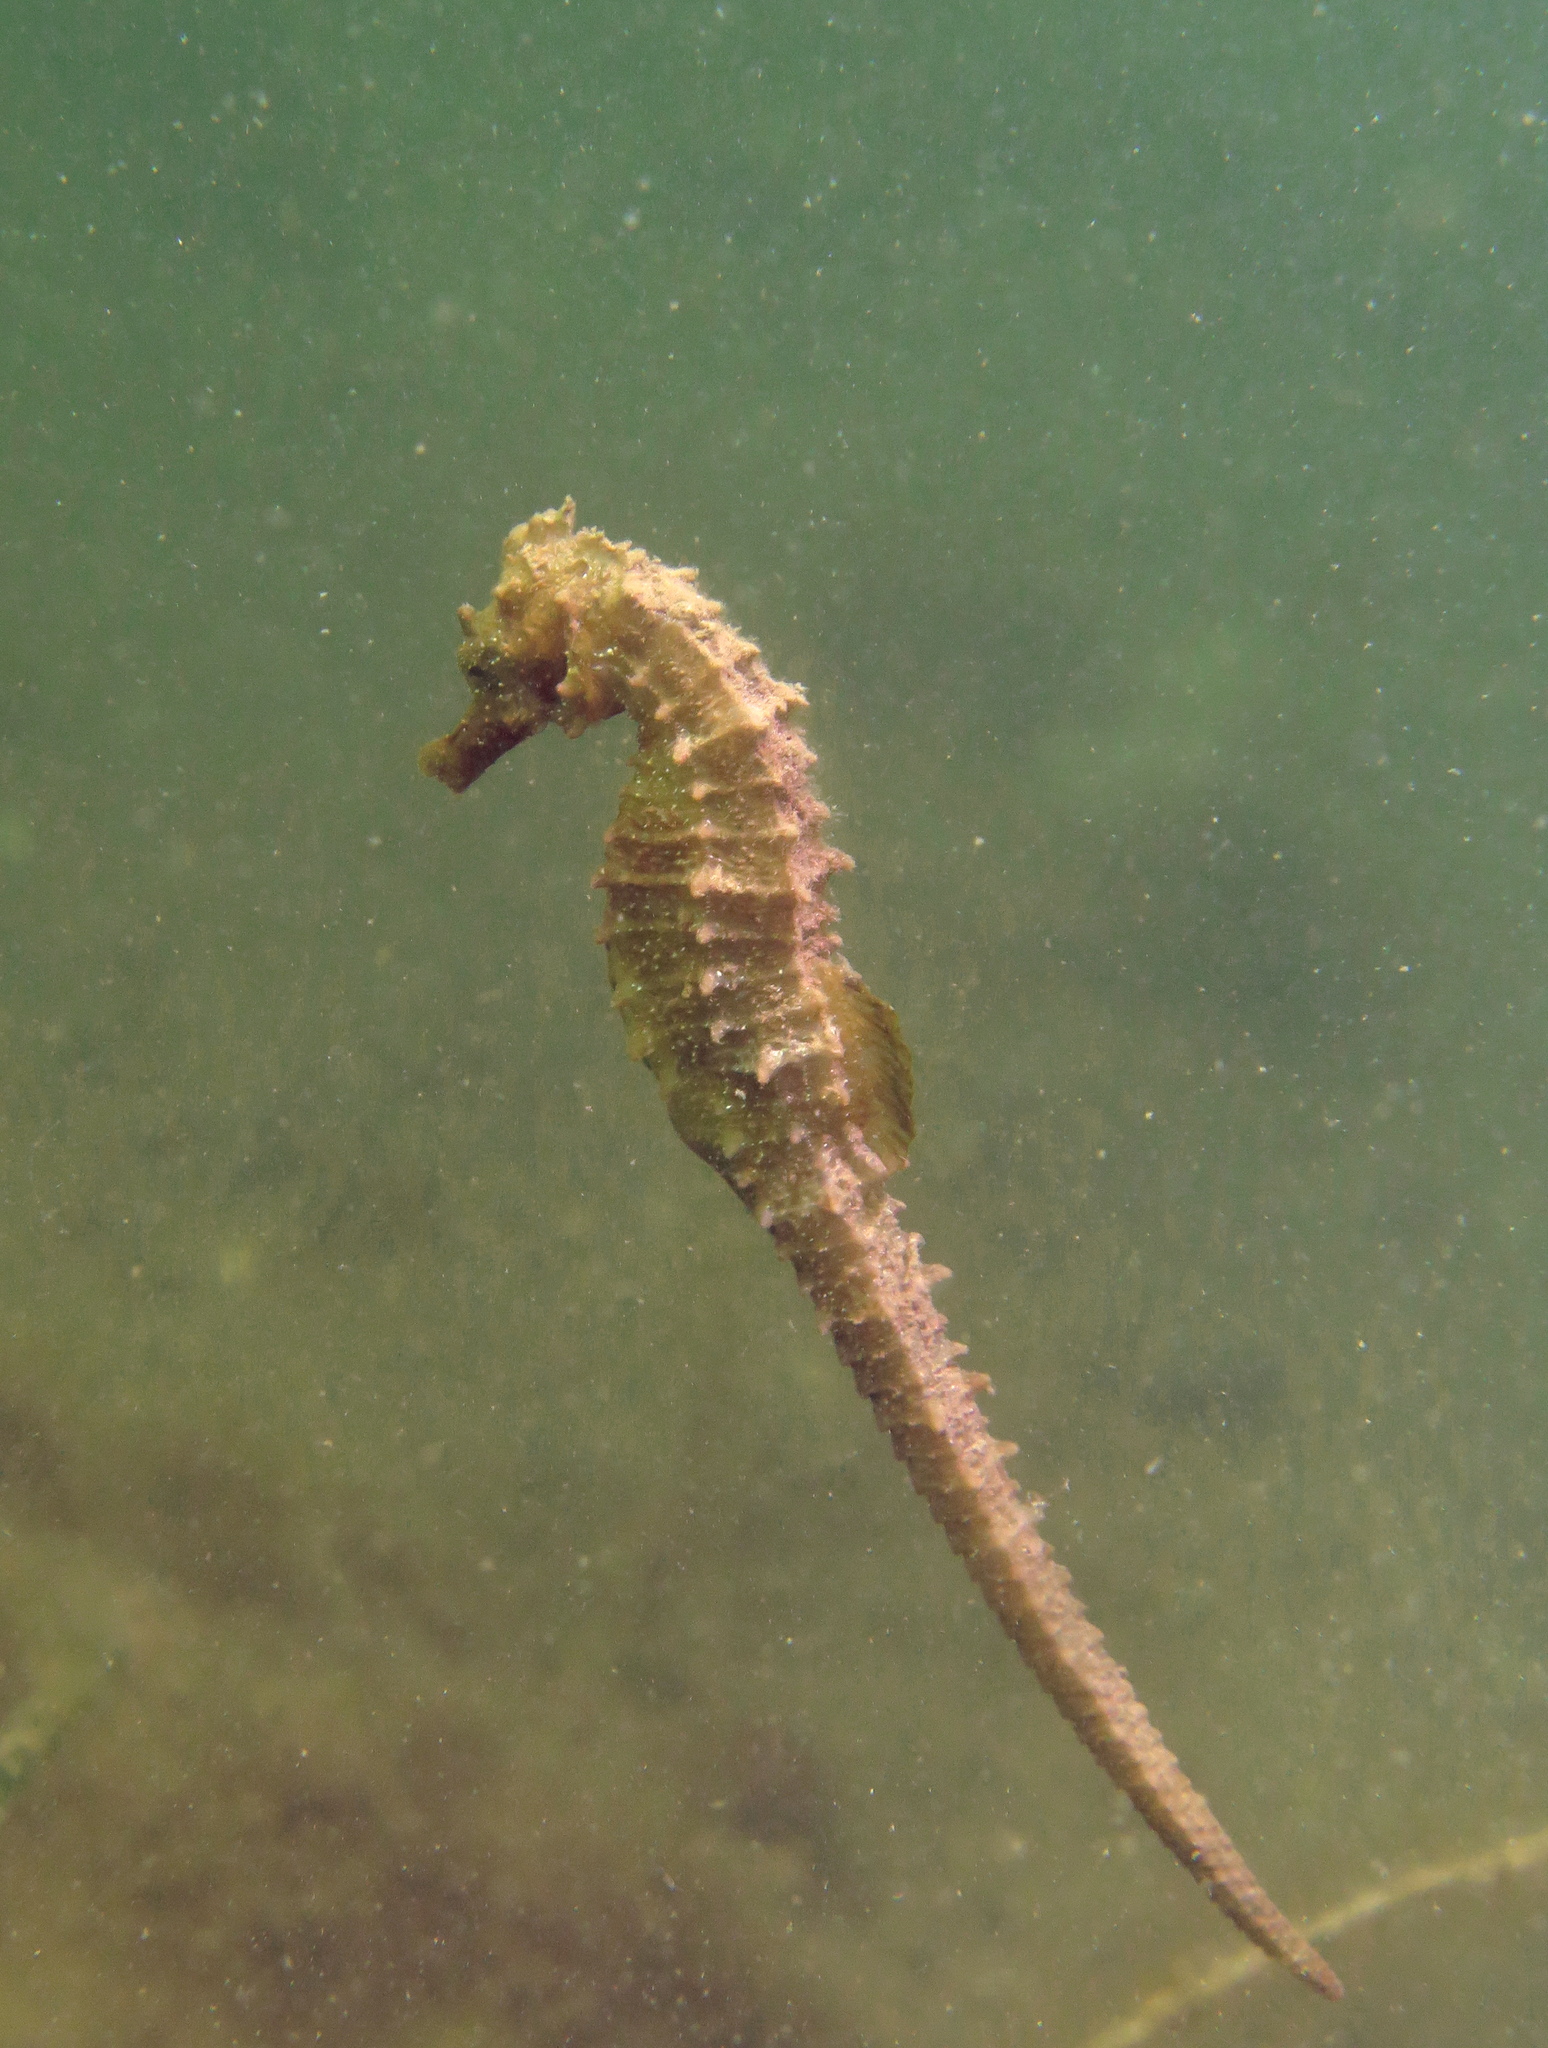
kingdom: Animalia
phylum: Chordata
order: Syngnathiformes
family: Syngnathidae
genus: Hippocampus
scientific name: Hippocampus guttulatus
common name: Long-snouted seahorse
